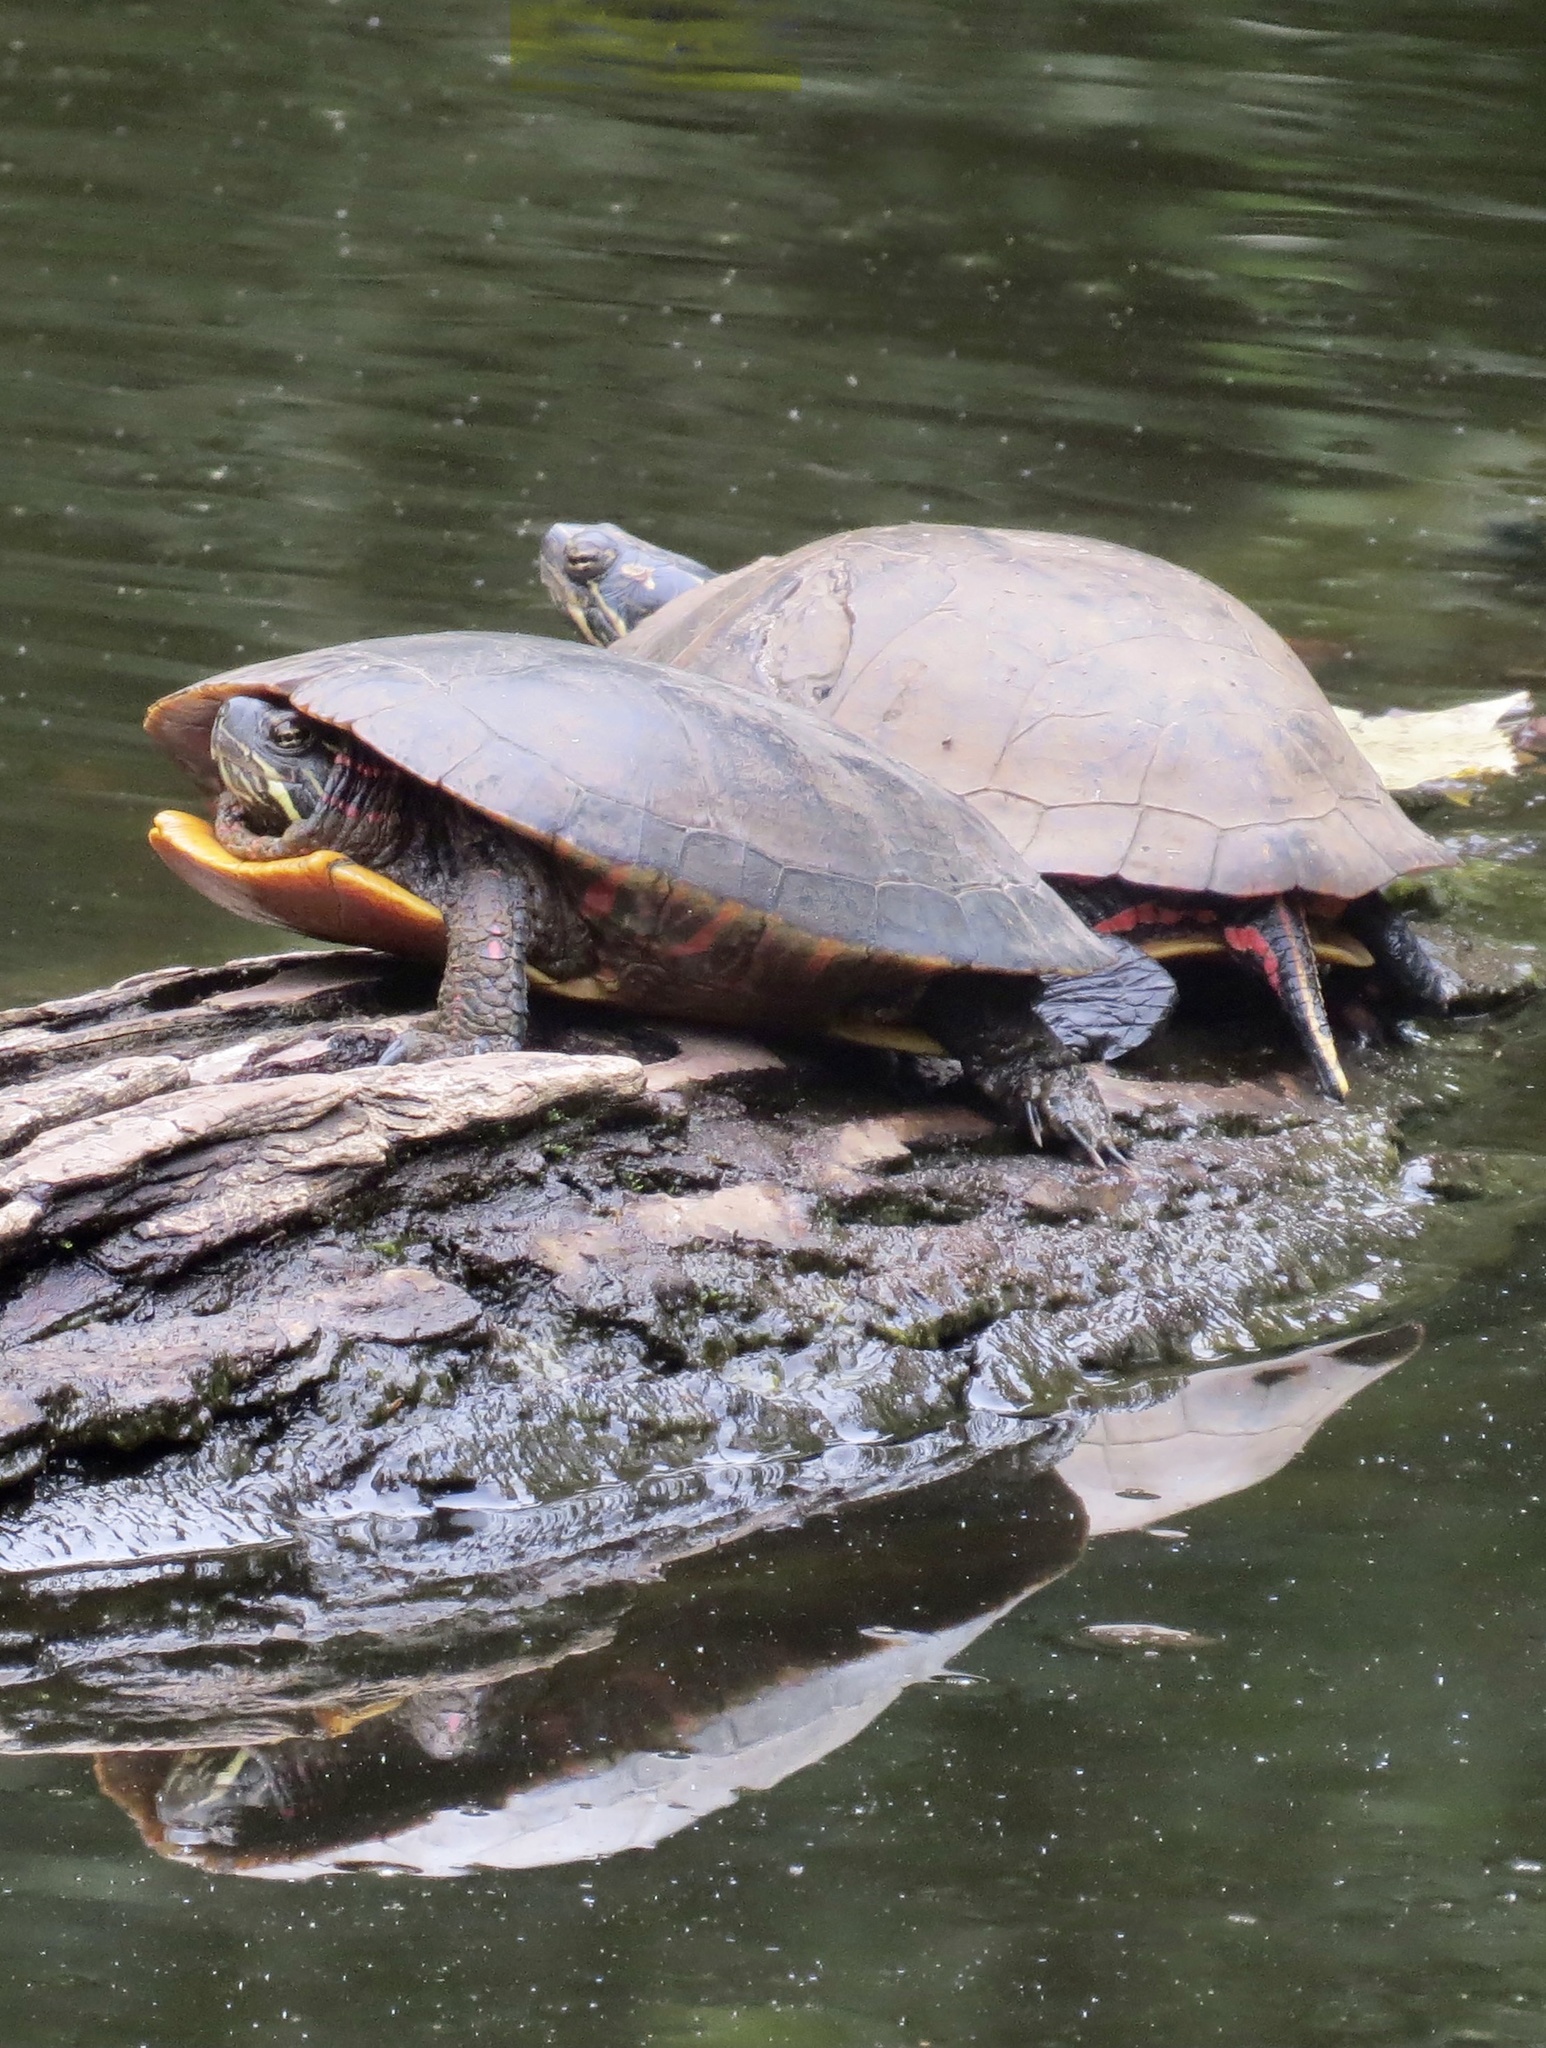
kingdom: Animalia
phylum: Chordata
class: Testudines
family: Emydidae
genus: Chrysemys
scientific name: Chrysemys picta
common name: Painted turtle
